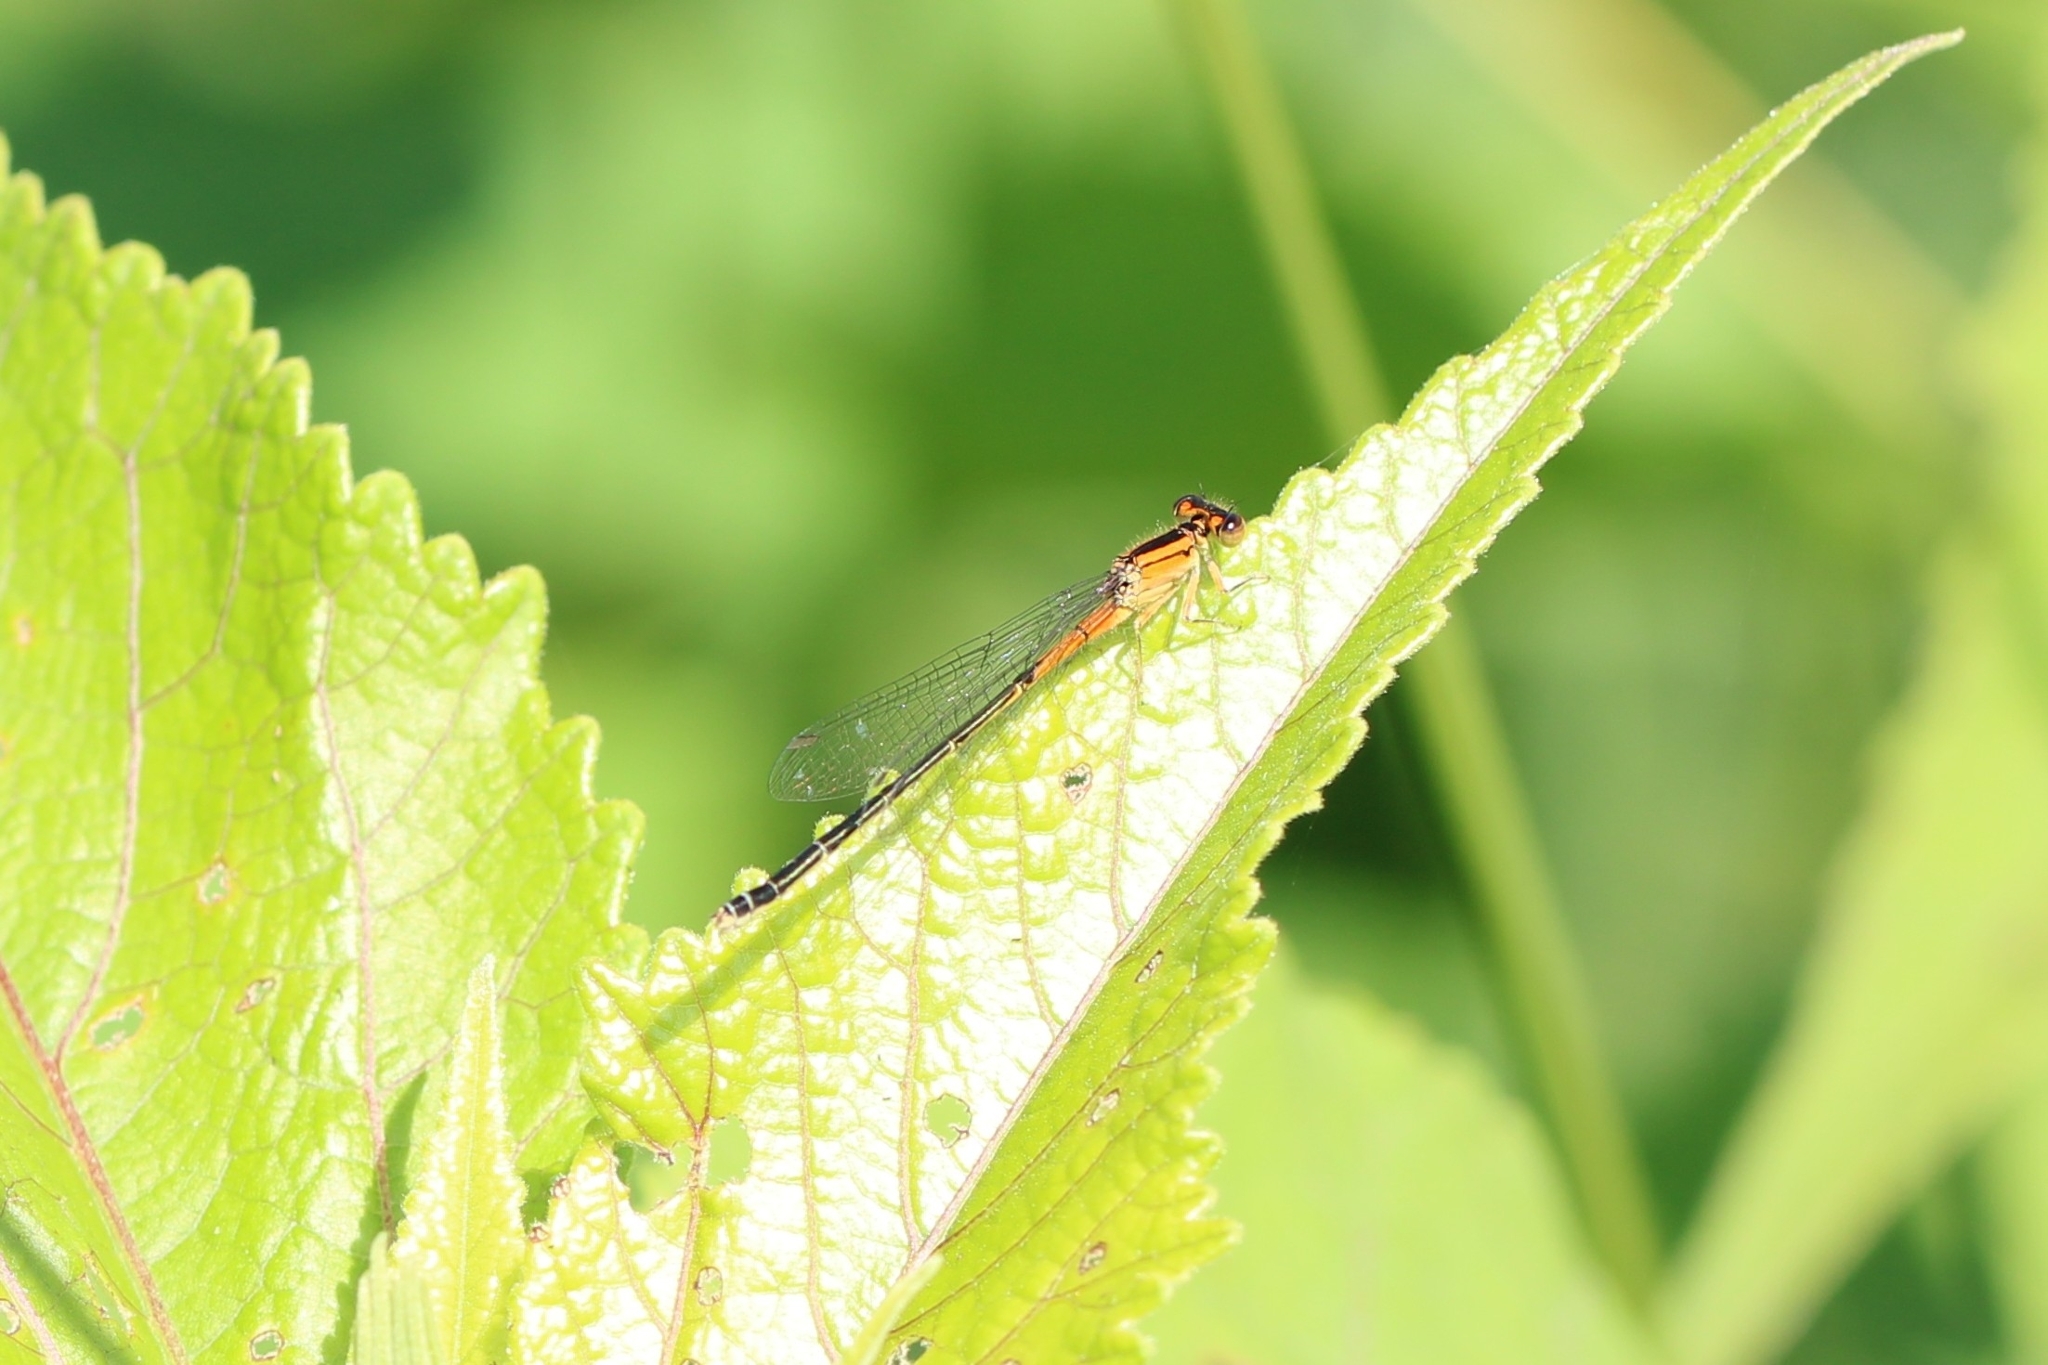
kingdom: Animalia
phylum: Arthropoda
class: Insecta
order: Odonata
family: Coenagrionidae
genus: Ischnura
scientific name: Ischnura verticalis
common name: Eastern forktail
